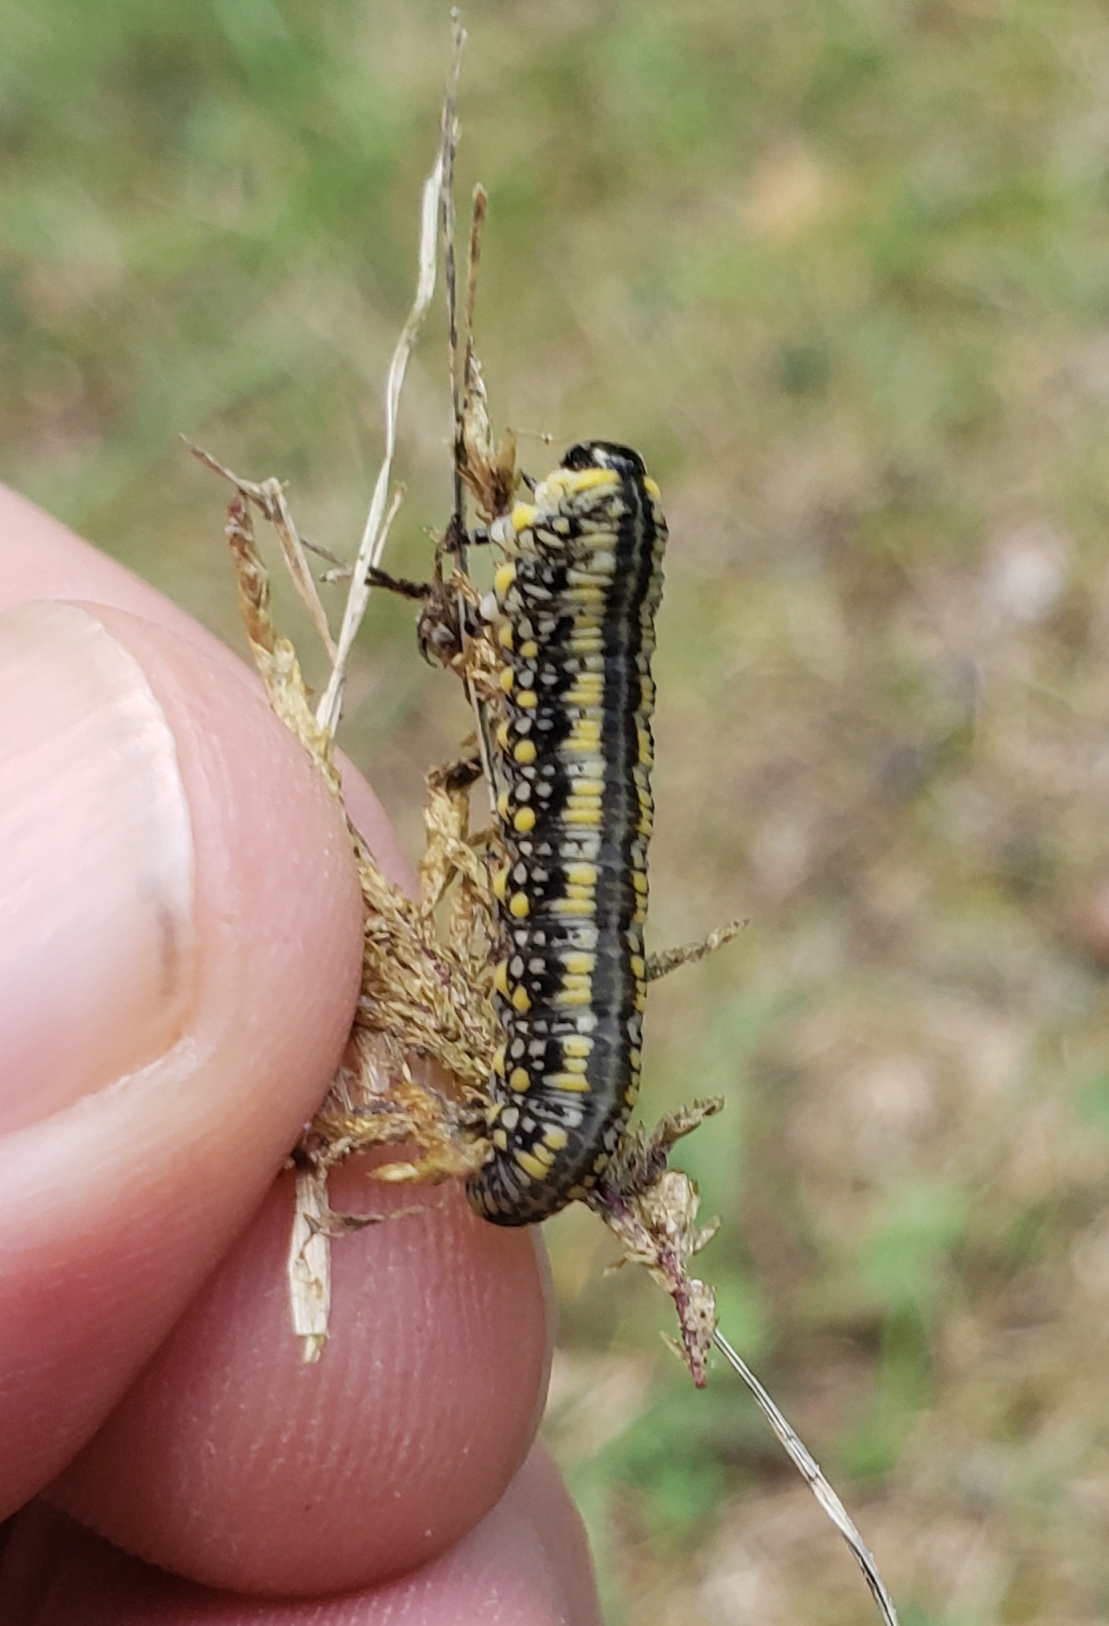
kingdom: Animalia
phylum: Arthropoda
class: Insecta
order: Hymenoptera
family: Diprionidae
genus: Diprion
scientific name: Diprion similis
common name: Pine sawfly
